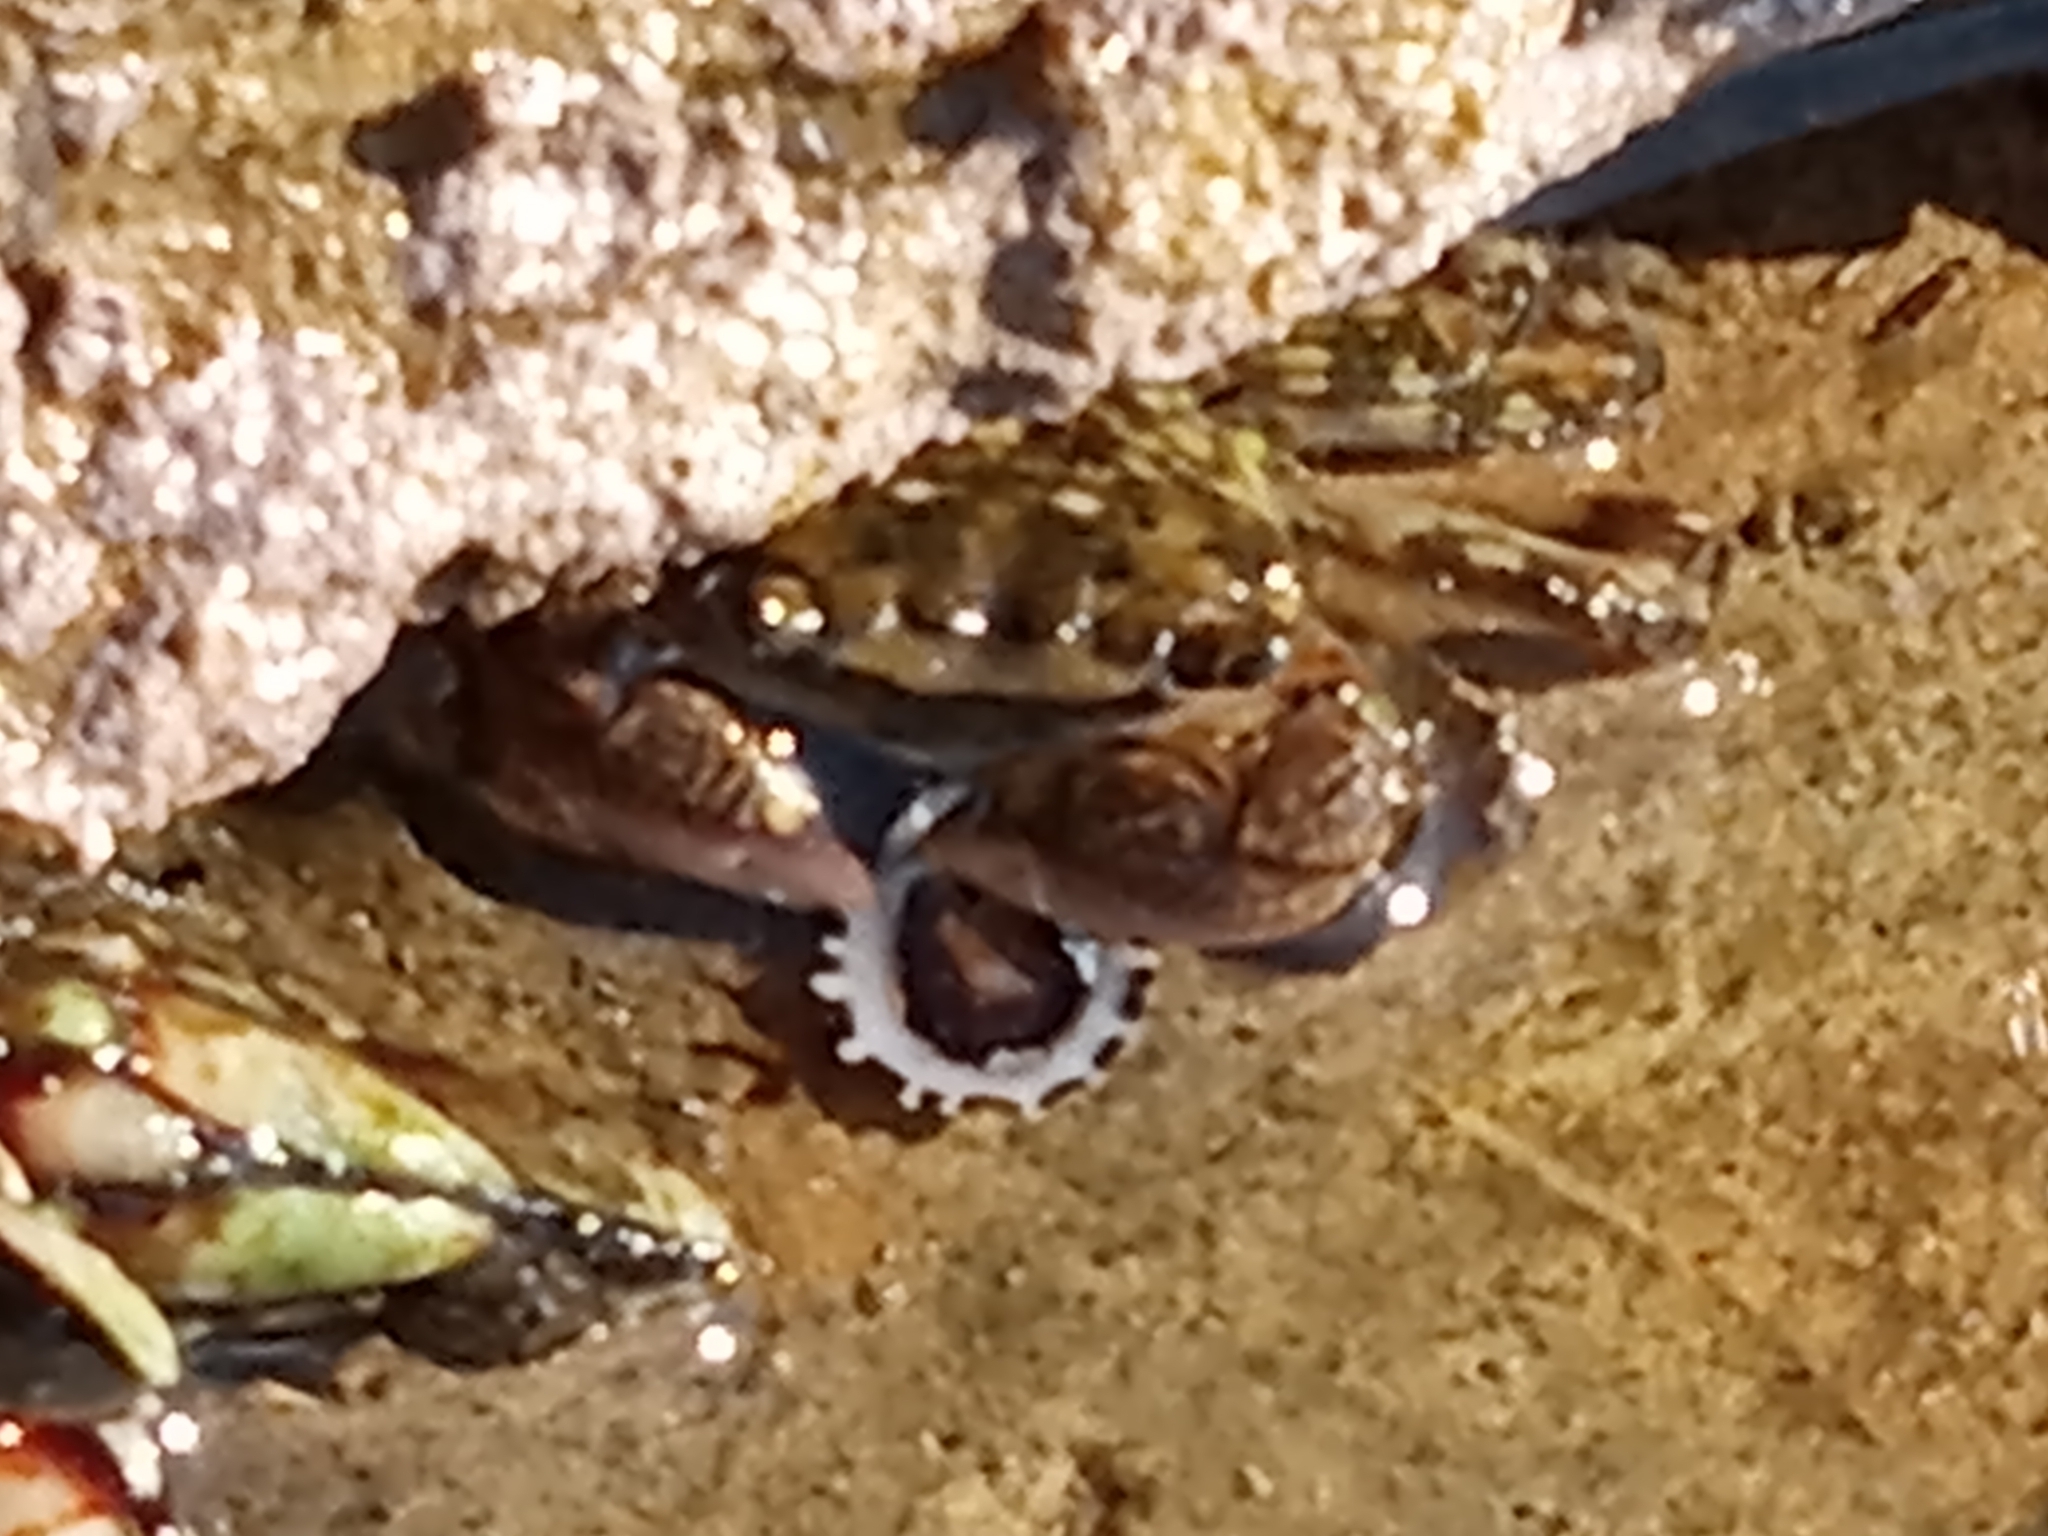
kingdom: Animalia
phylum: Arthropoda
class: Malacostraca
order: Decapoda
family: Grapsidae
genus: Pachygrapsus
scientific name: Pachygrapsus crassipes
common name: Striped shore crab
